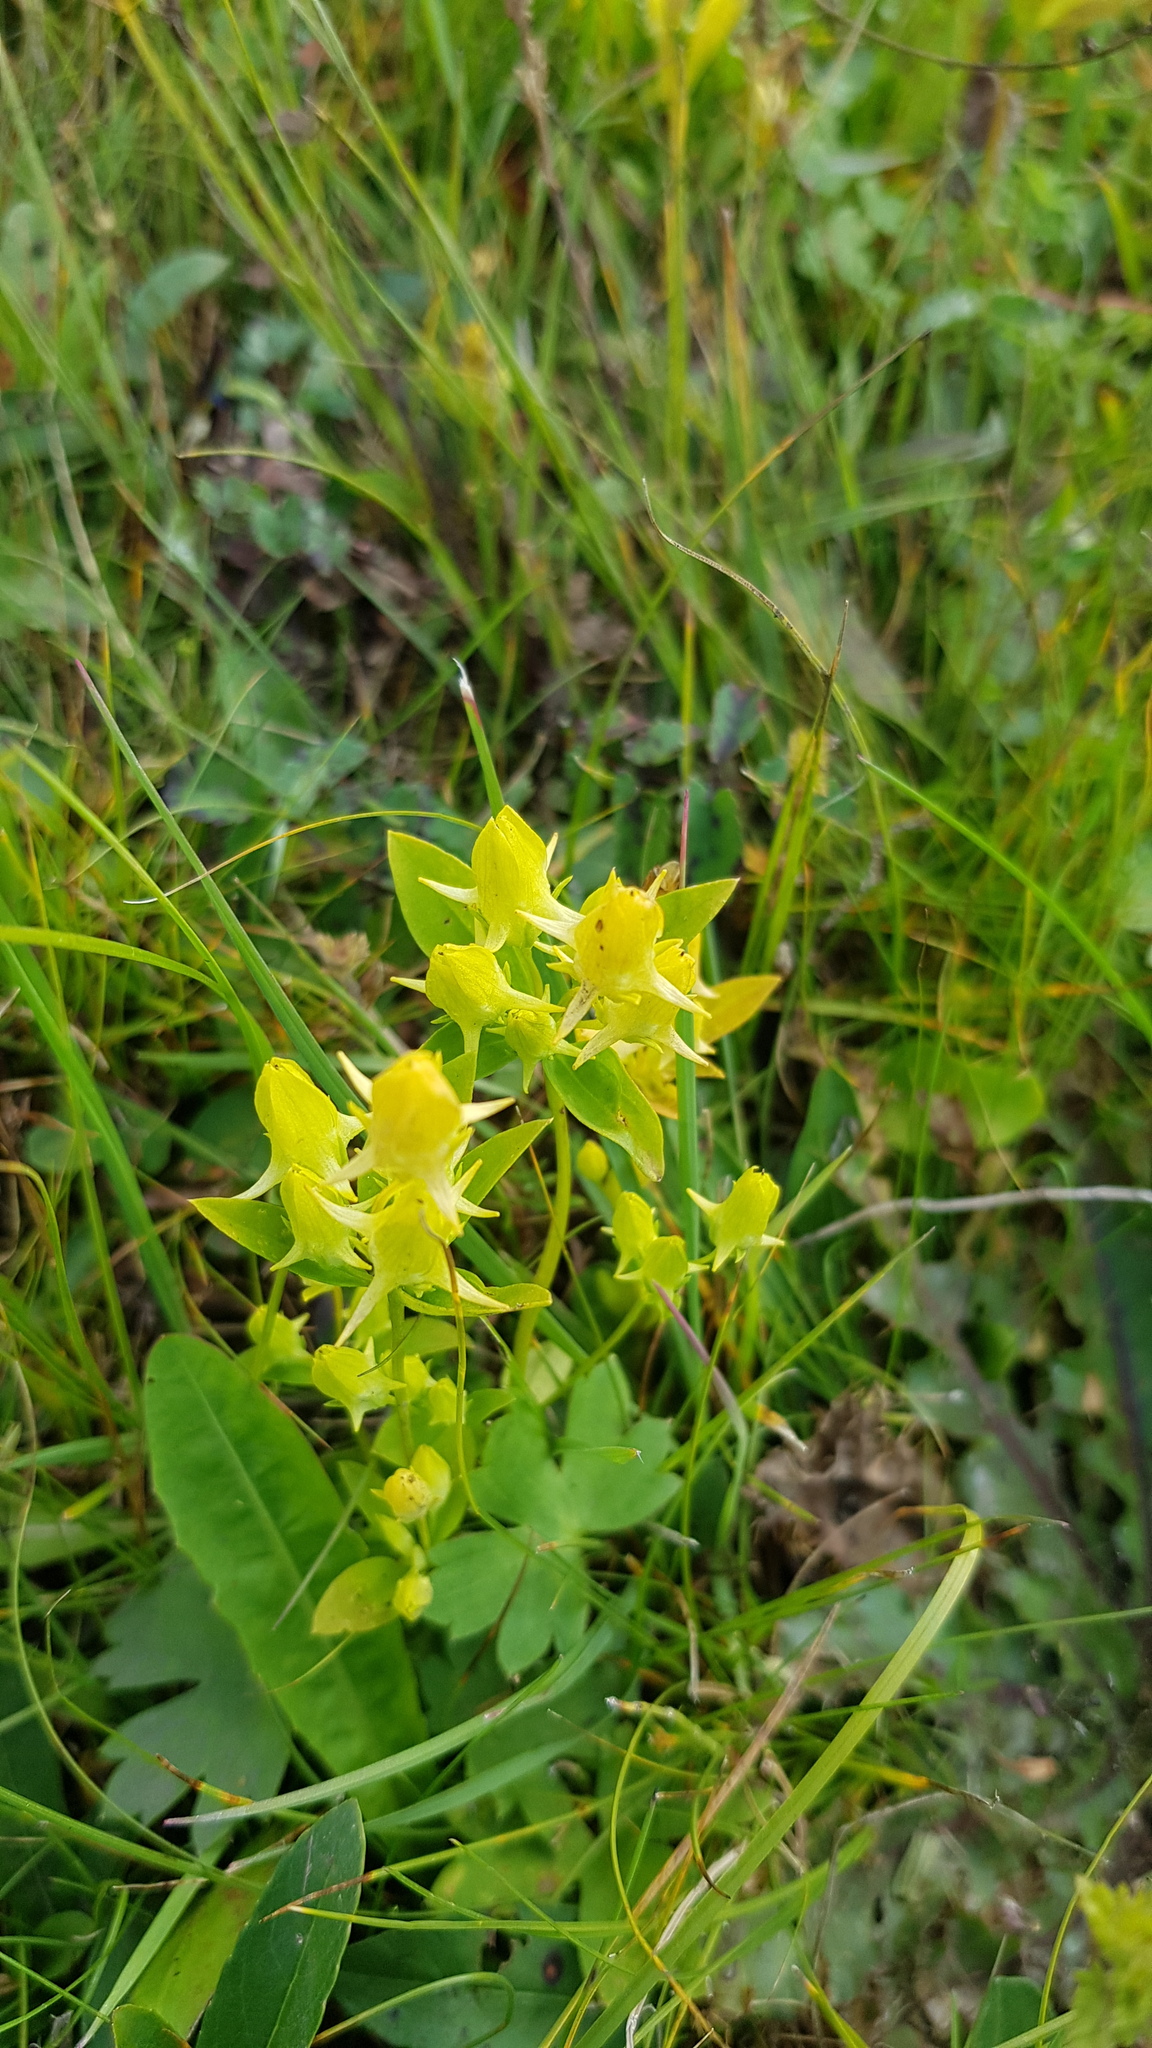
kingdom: Plantae
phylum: Tracheophyta
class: Magnoliopsida
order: Gentianales
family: Gentianaceae
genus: Halenia
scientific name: Halenia corniculata
